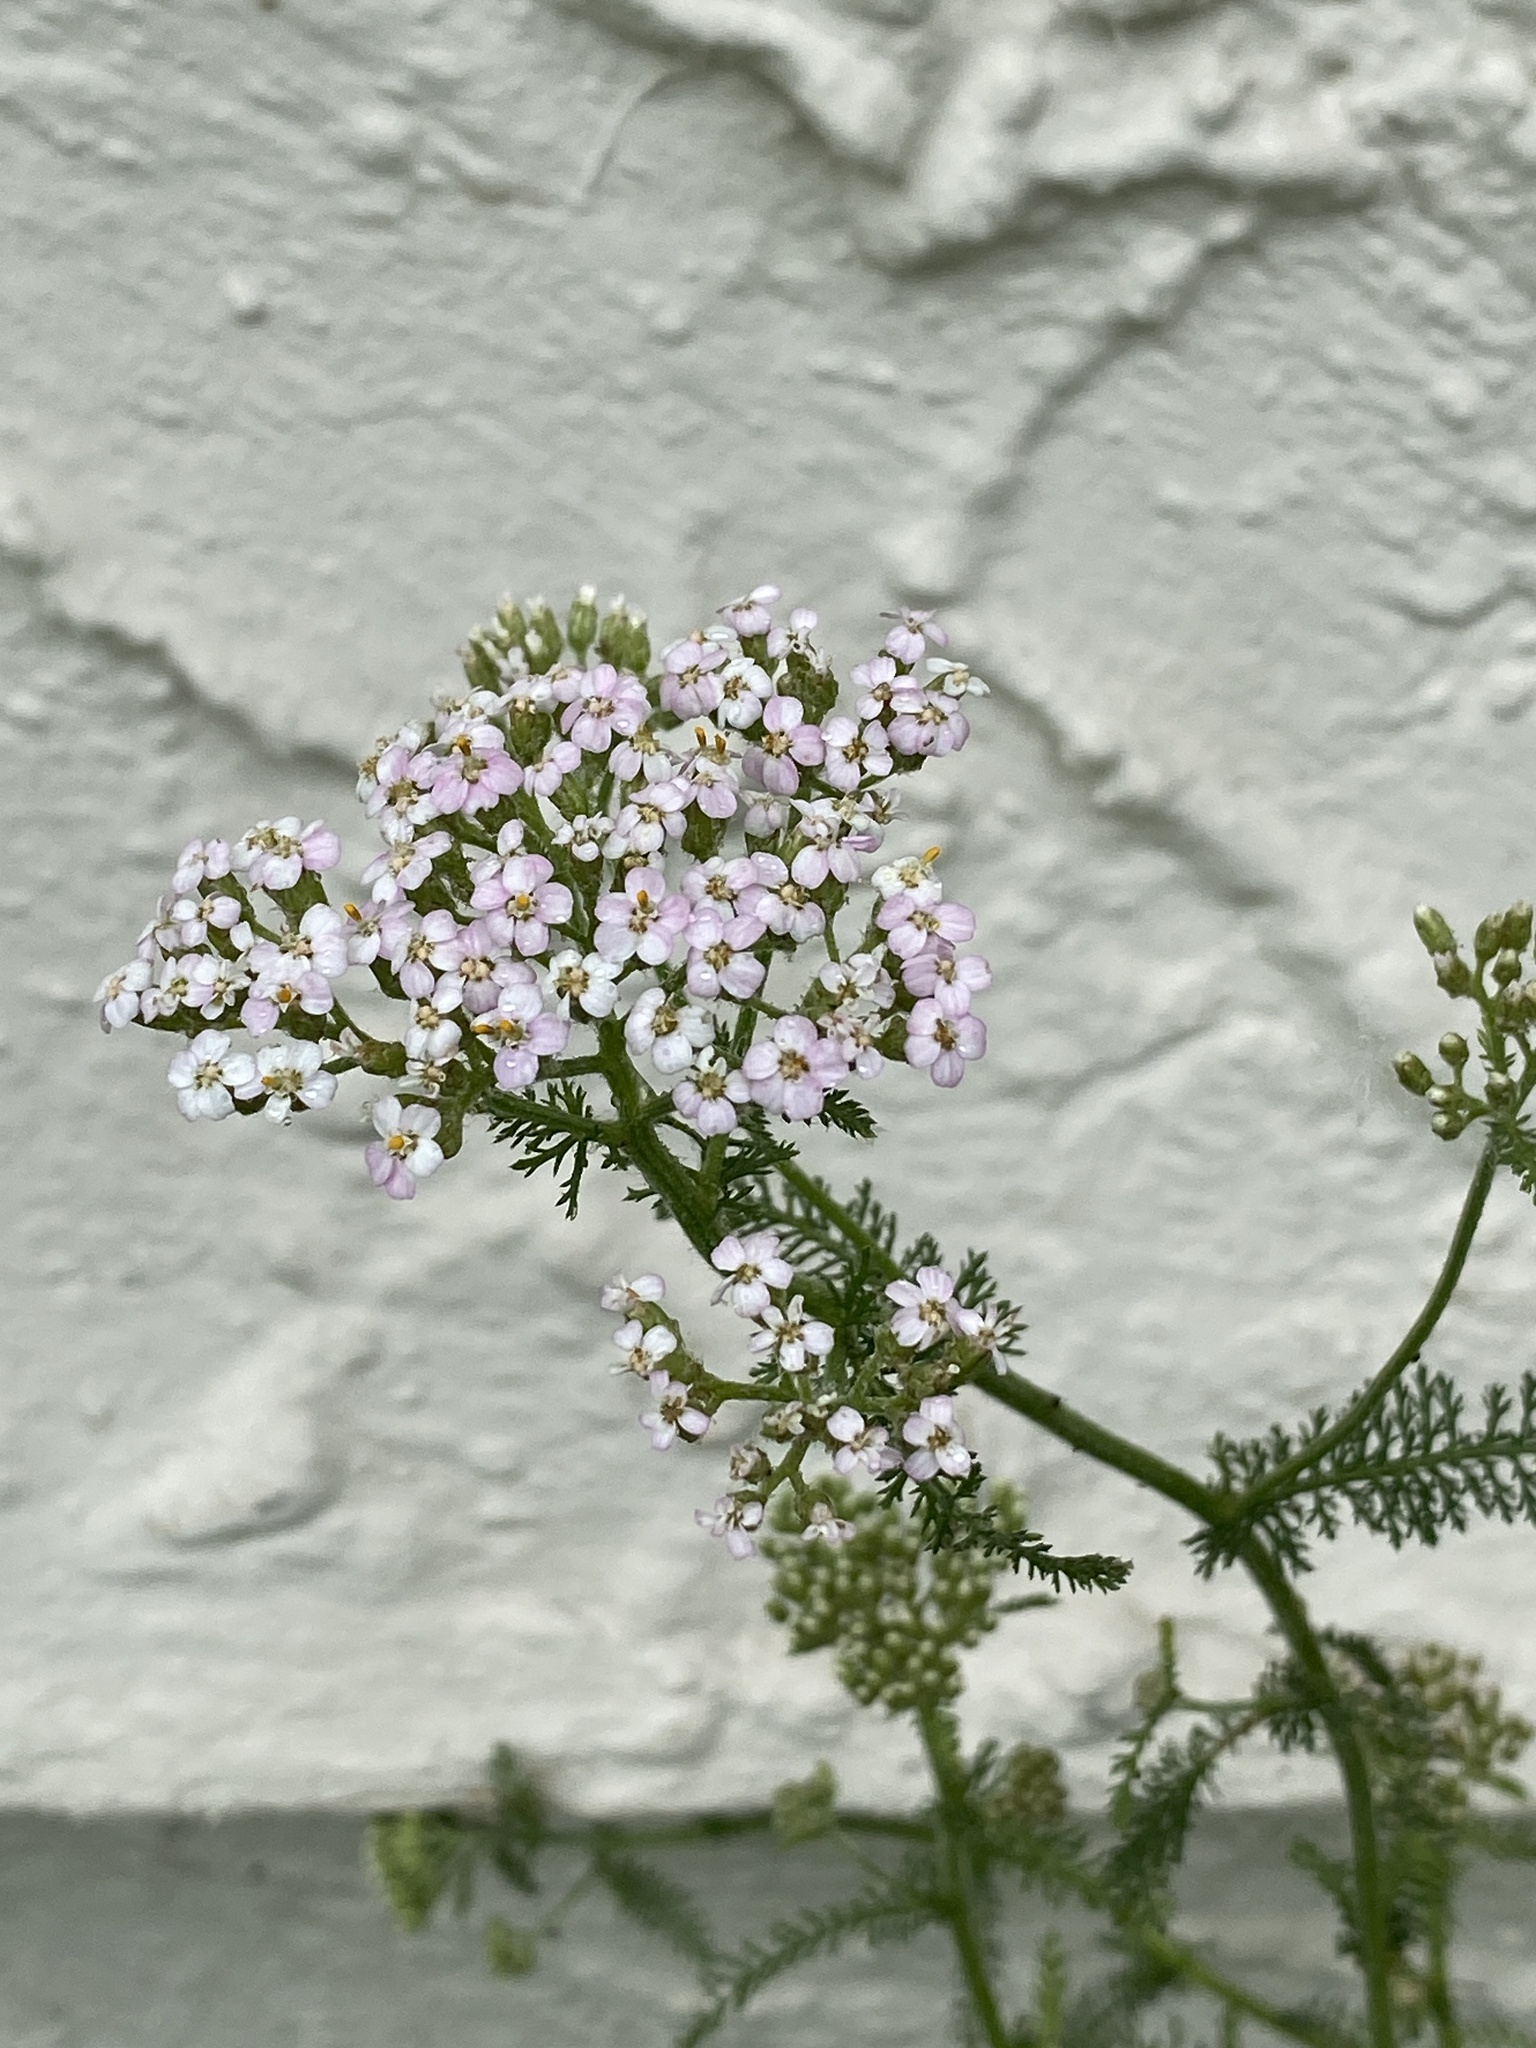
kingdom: Plantae
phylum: Tracheophyta
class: Magnoliopsida
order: Asterales
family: Asteraceae
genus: Achillea
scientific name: Achillea millefolium
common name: Yarrow
